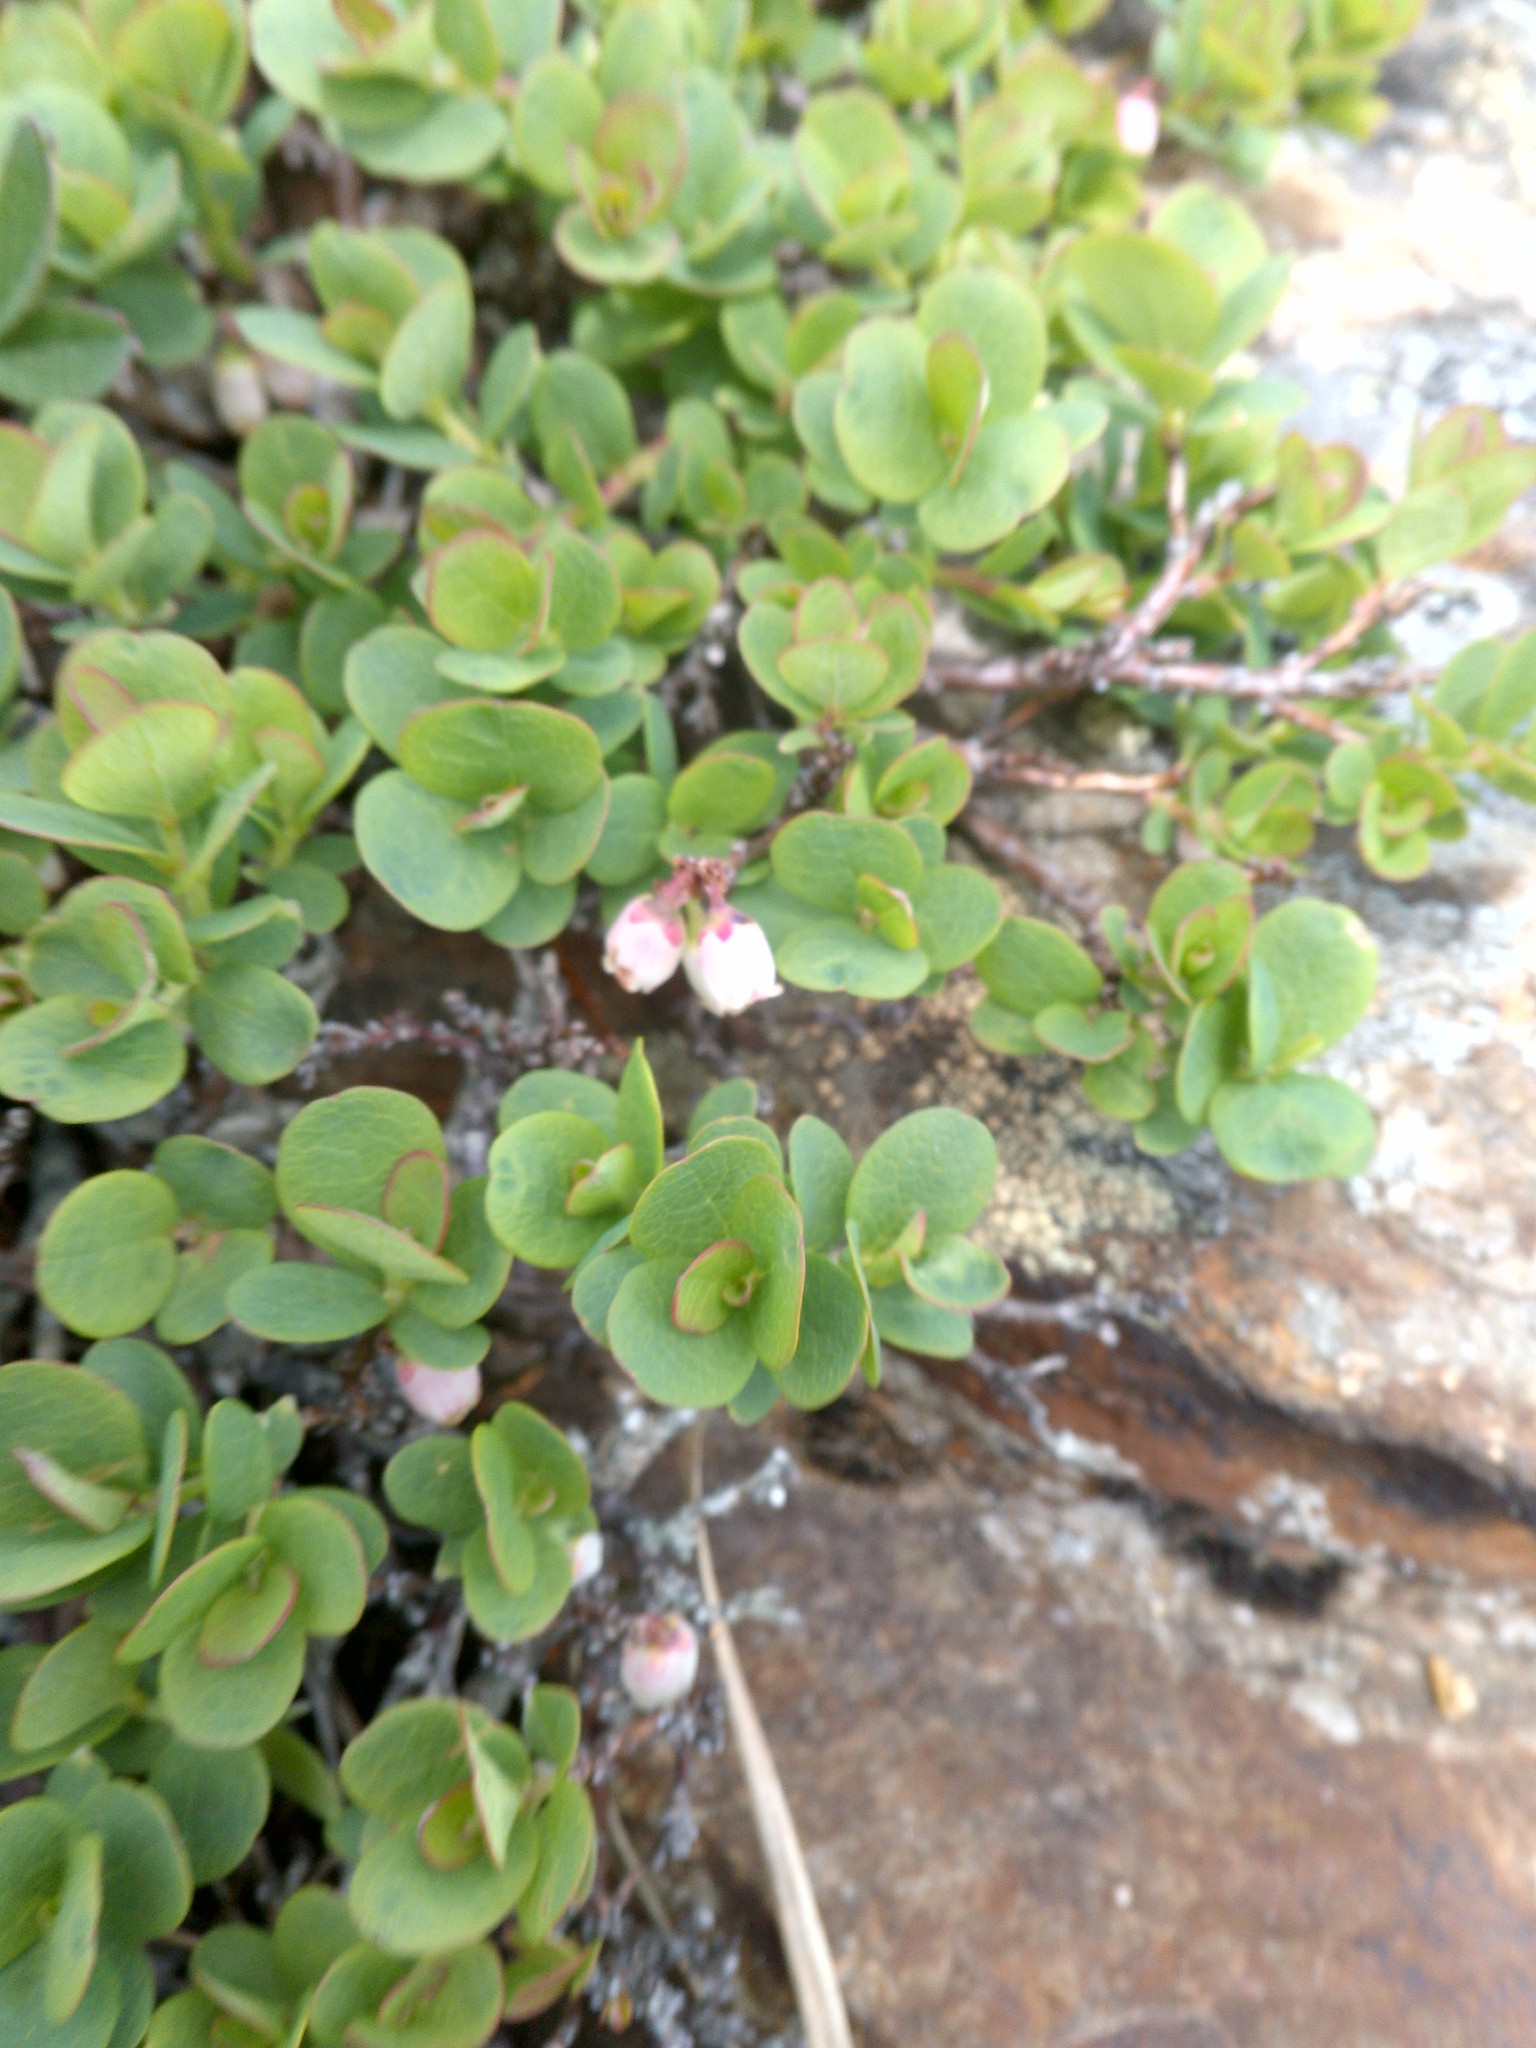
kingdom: Plantae
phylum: Tracheophyta
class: Magnoliopsida
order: Ericales
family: Ericaceae
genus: Vaccinium
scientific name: Vaccinium uliginosum
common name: Bog bilberry
